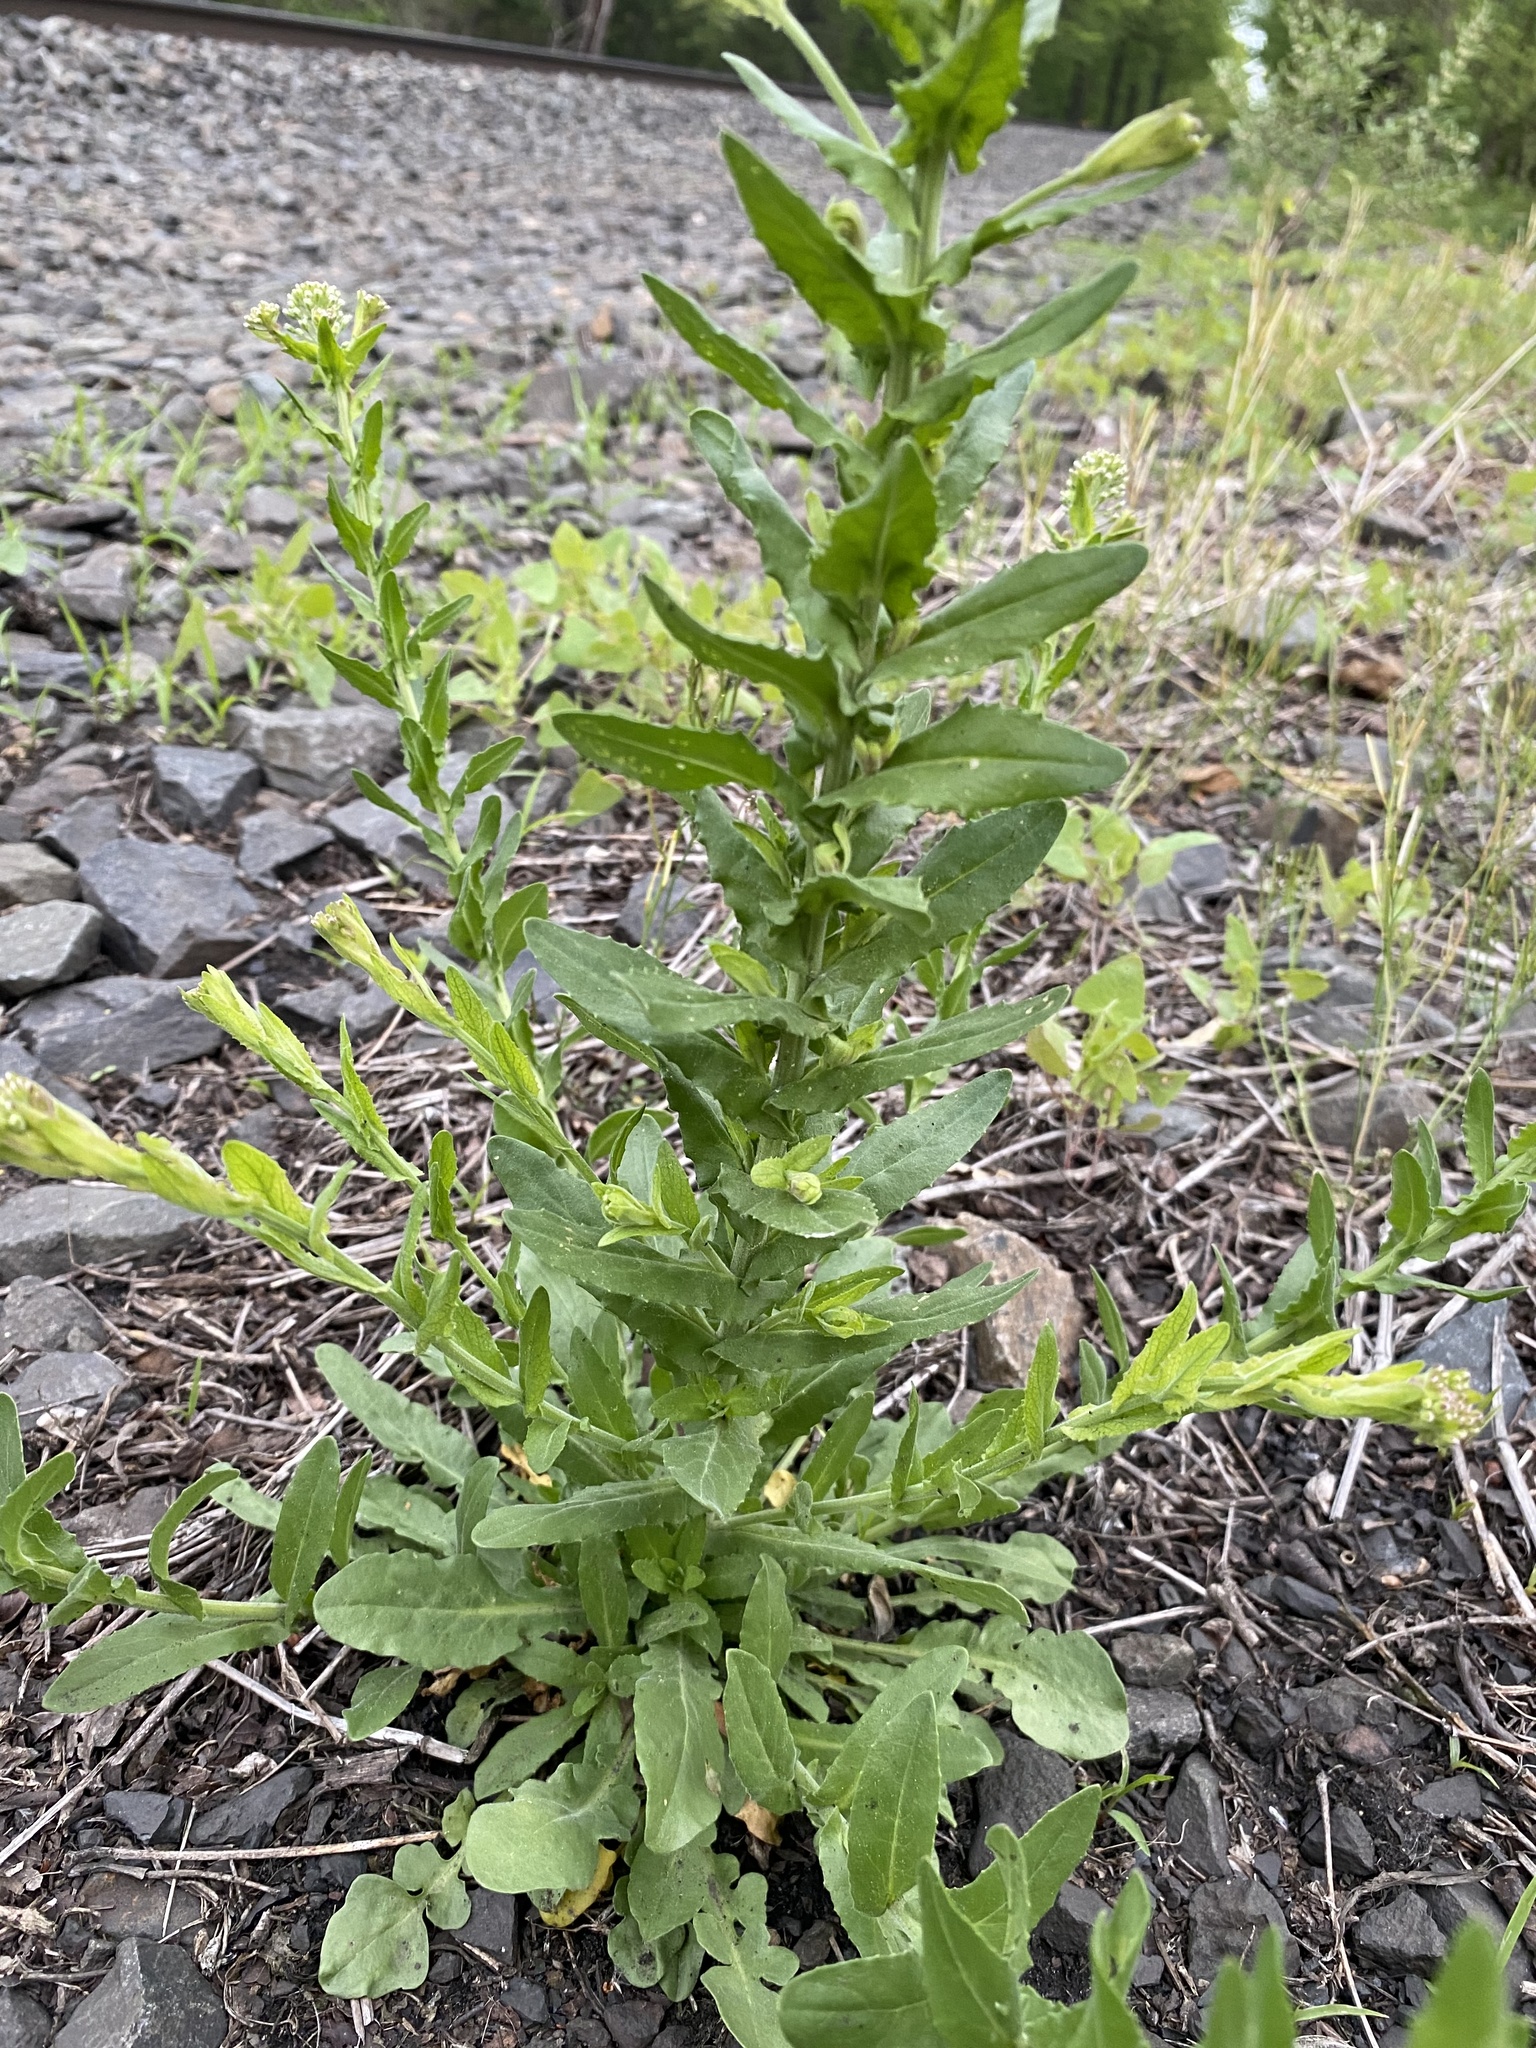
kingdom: Plantae
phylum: Tracheophyta
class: Magnoliopsida
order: Brassicales
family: Brassicaceae
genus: Lepidium
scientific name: Lepidium campestre
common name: Field pepperwort
